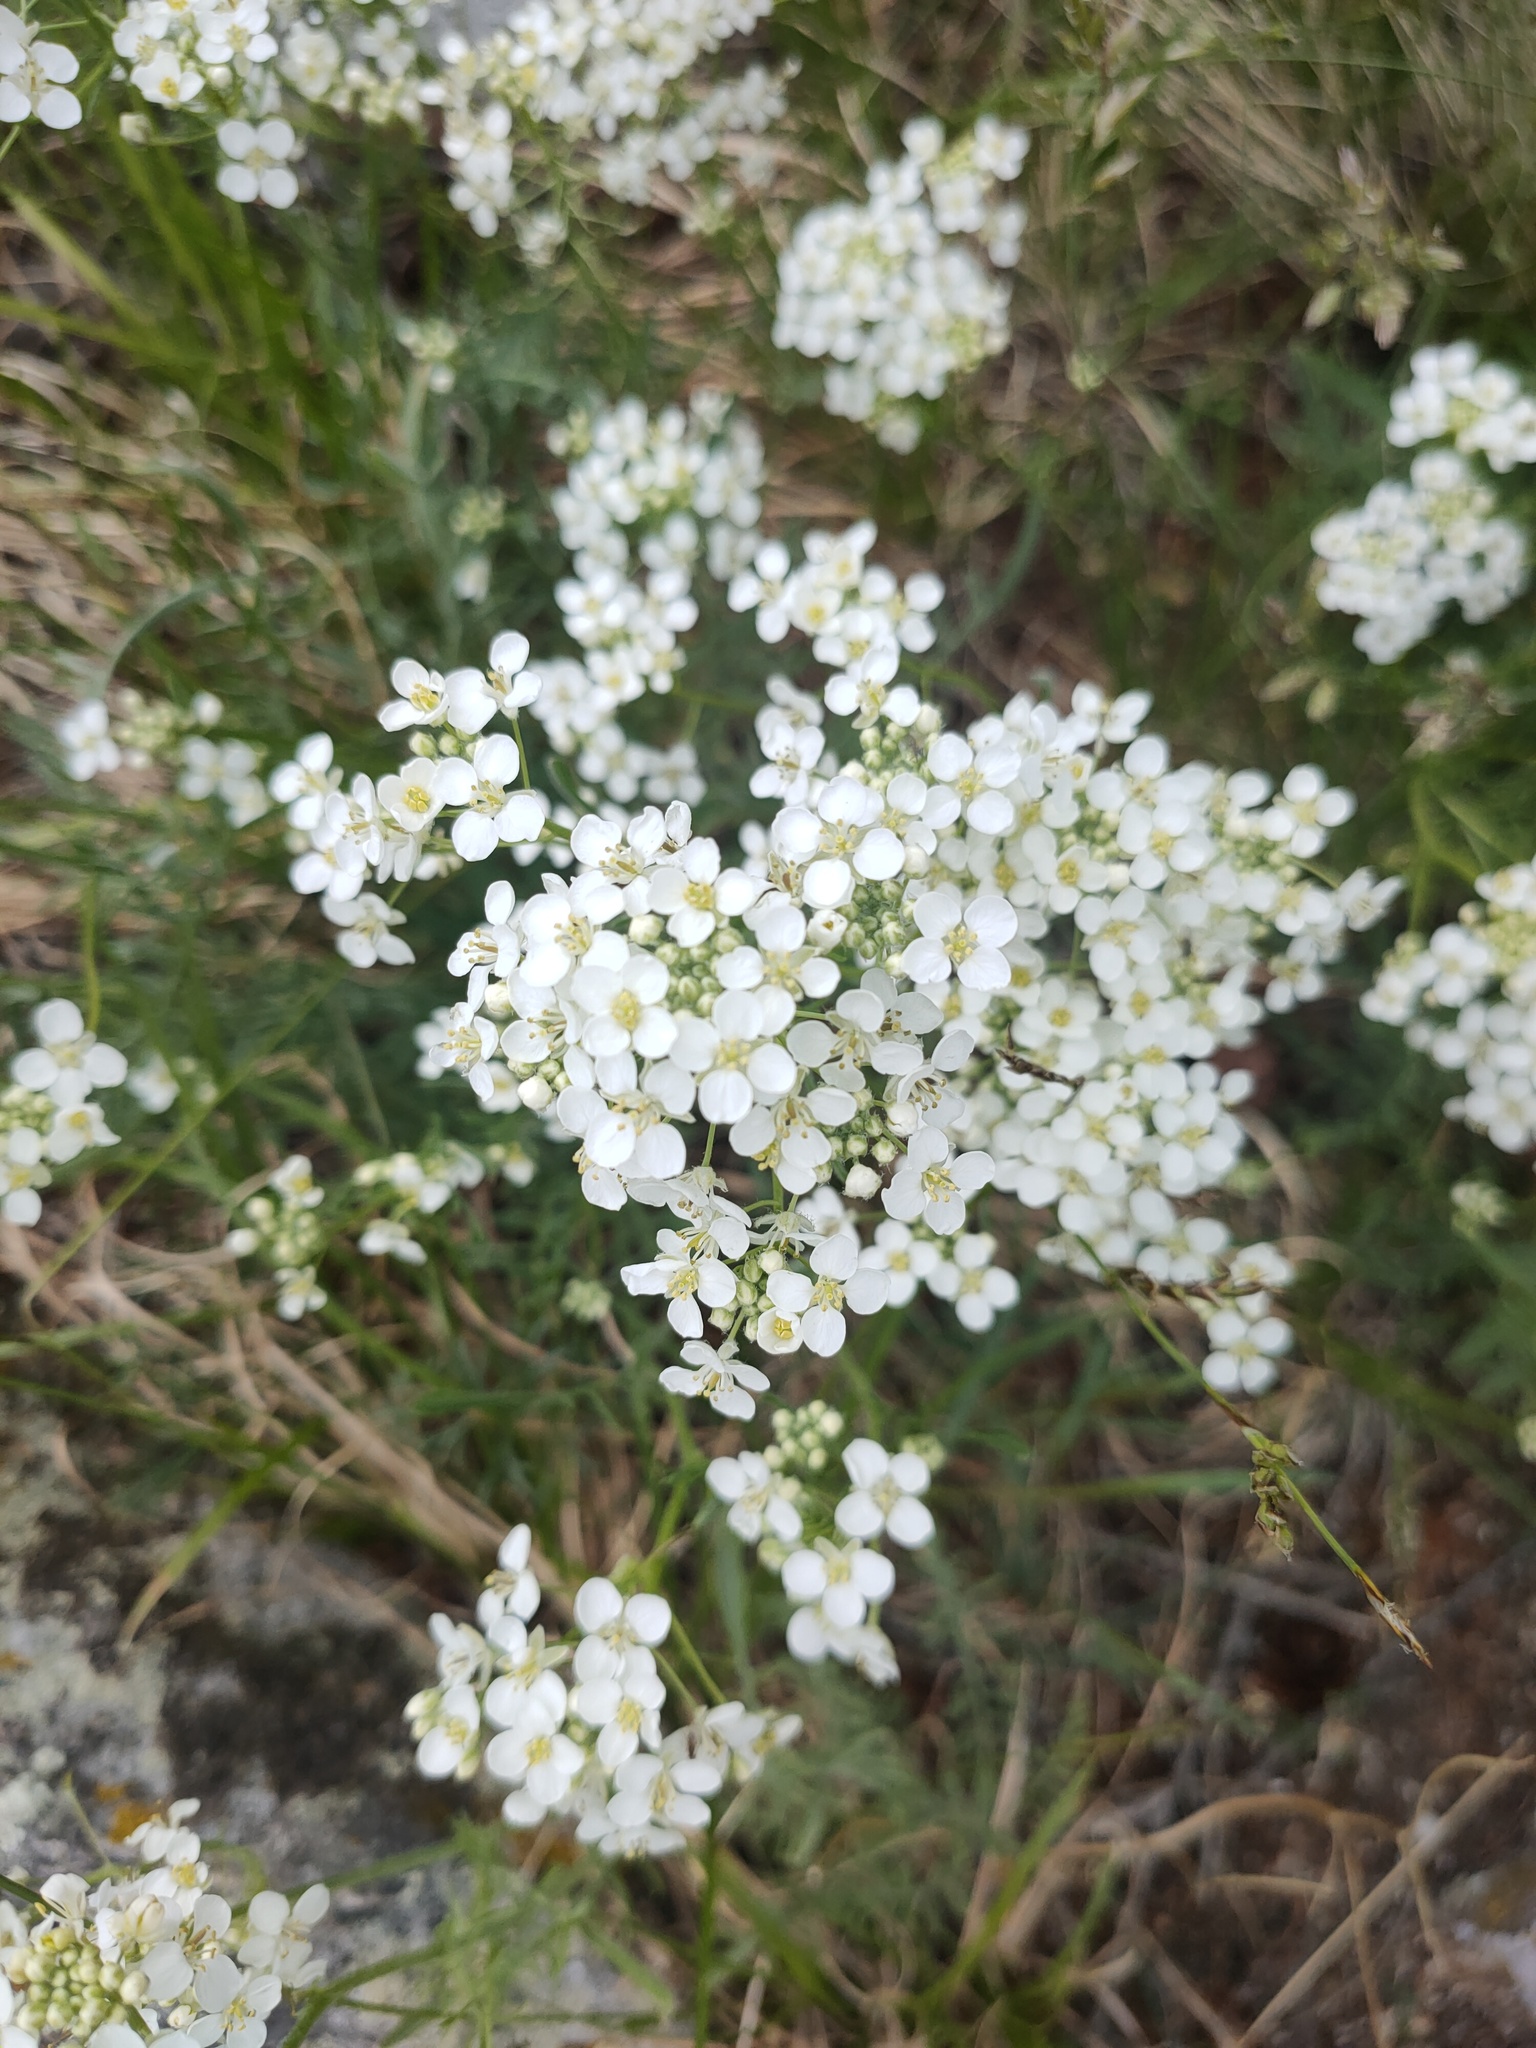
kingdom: Plantae
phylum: Tracheophyta
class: Magnoliopsida
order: Brassicales
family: Brassicaceae
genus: Smelowskia
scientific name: Smelowskia alba
